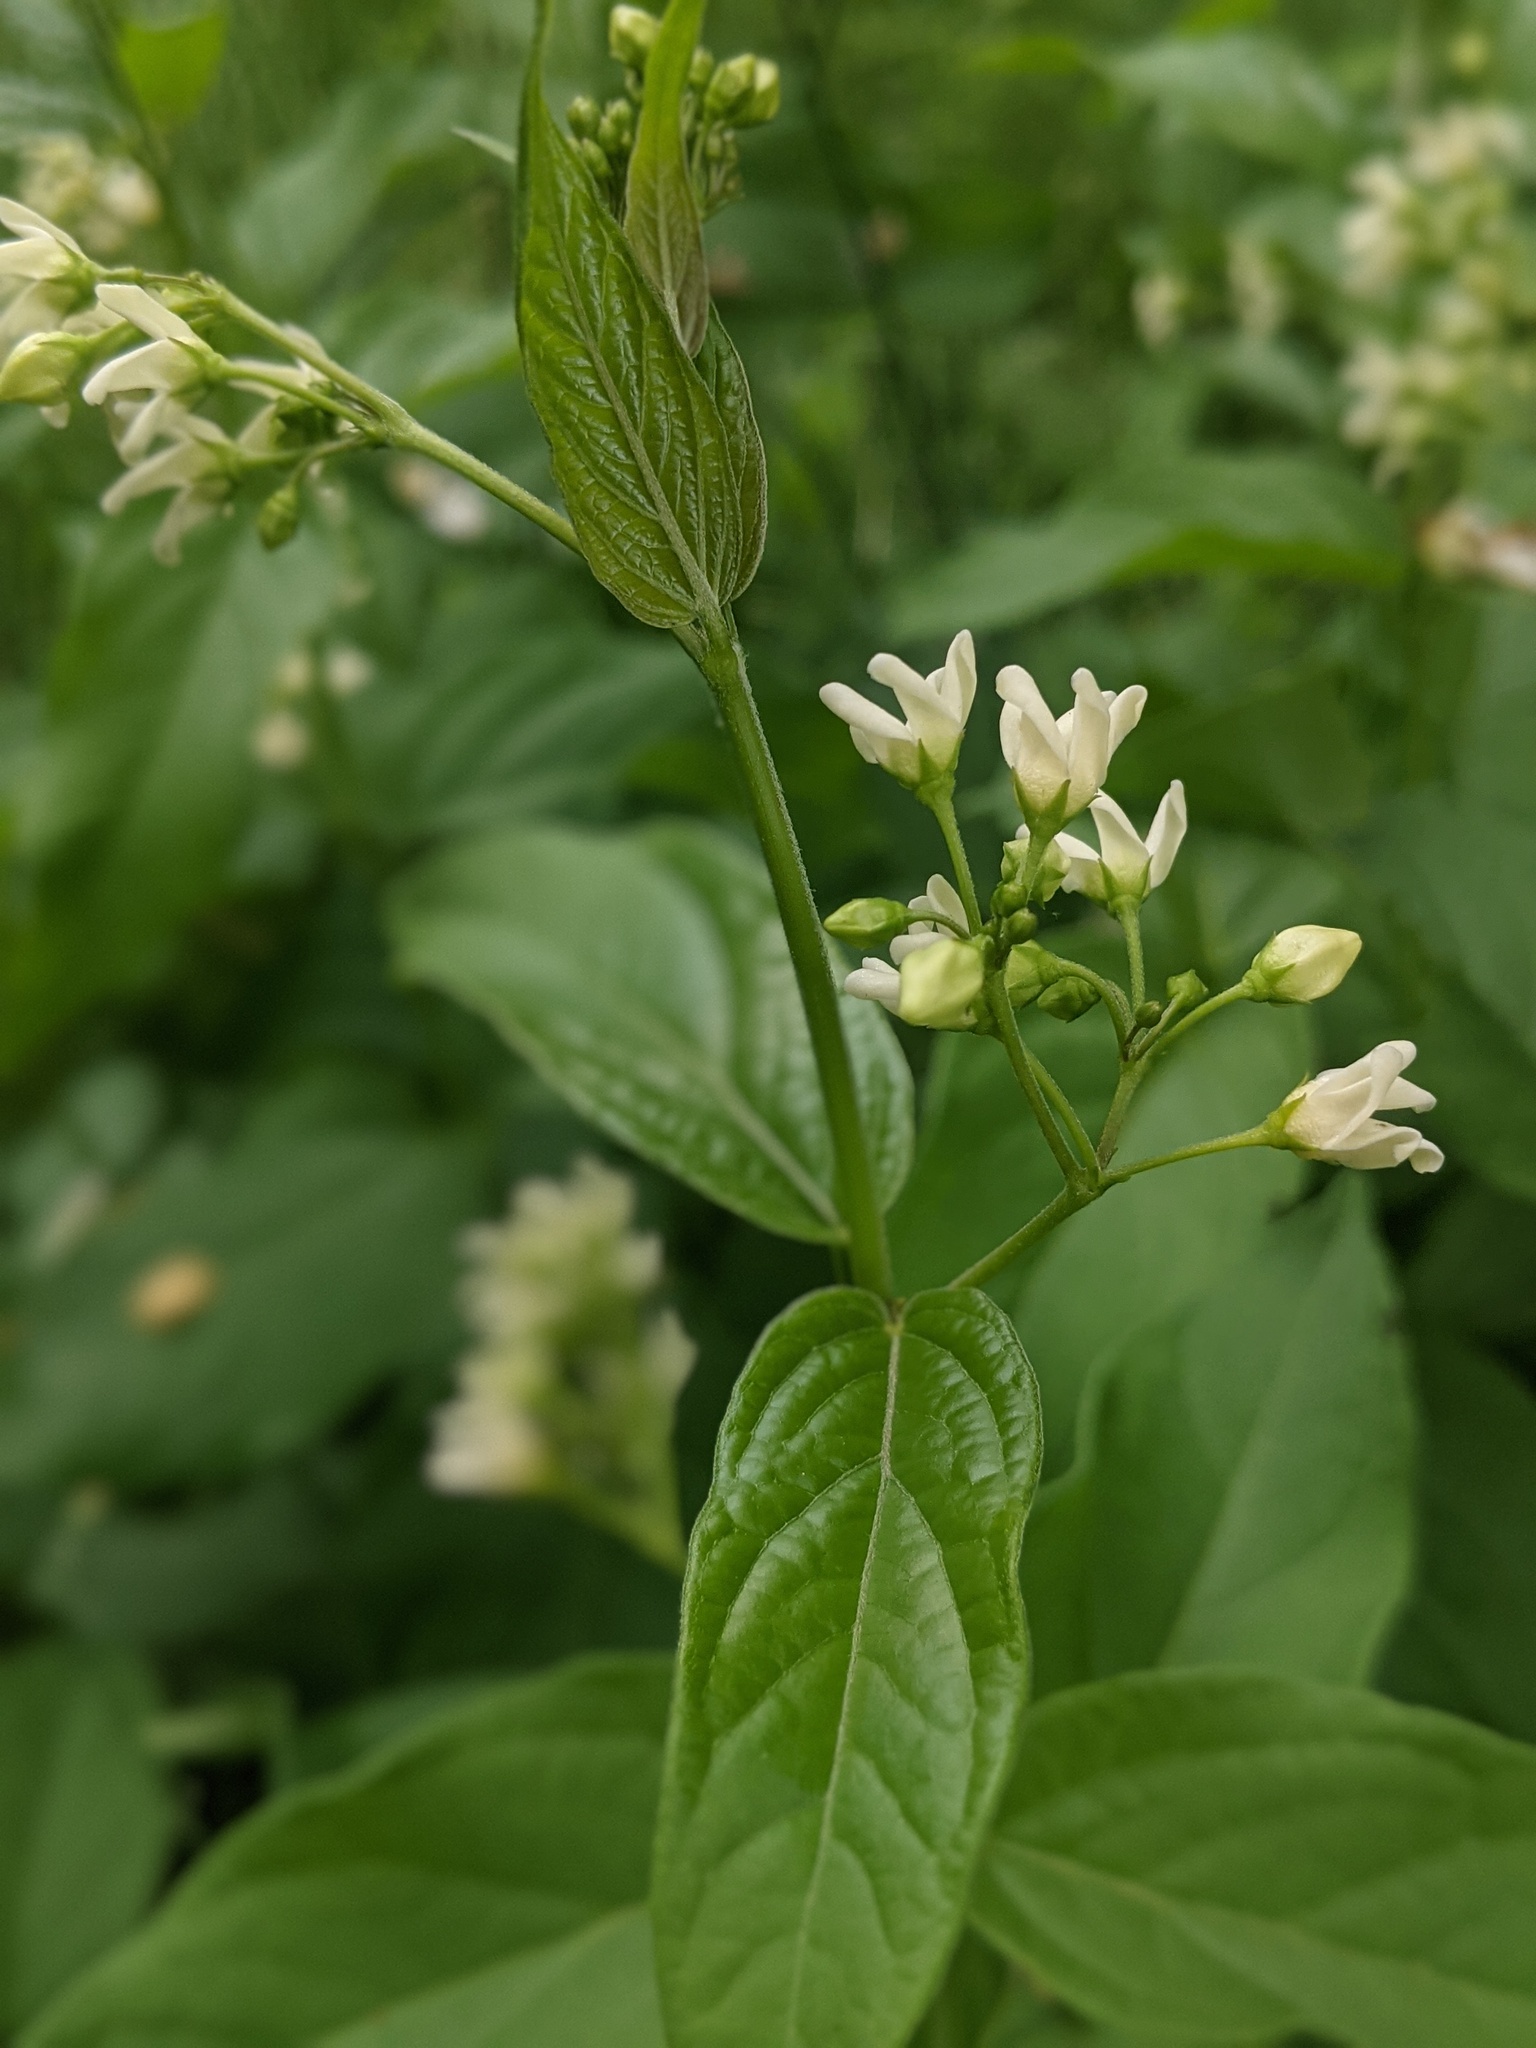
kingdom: Plantae
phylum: Tracheophyta
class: Magnoliopsida
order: Gentianales
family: Apocynaceae
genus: Vincetoxicum
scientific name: Vincetoxicum hirundinaria
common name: White swallowwort
